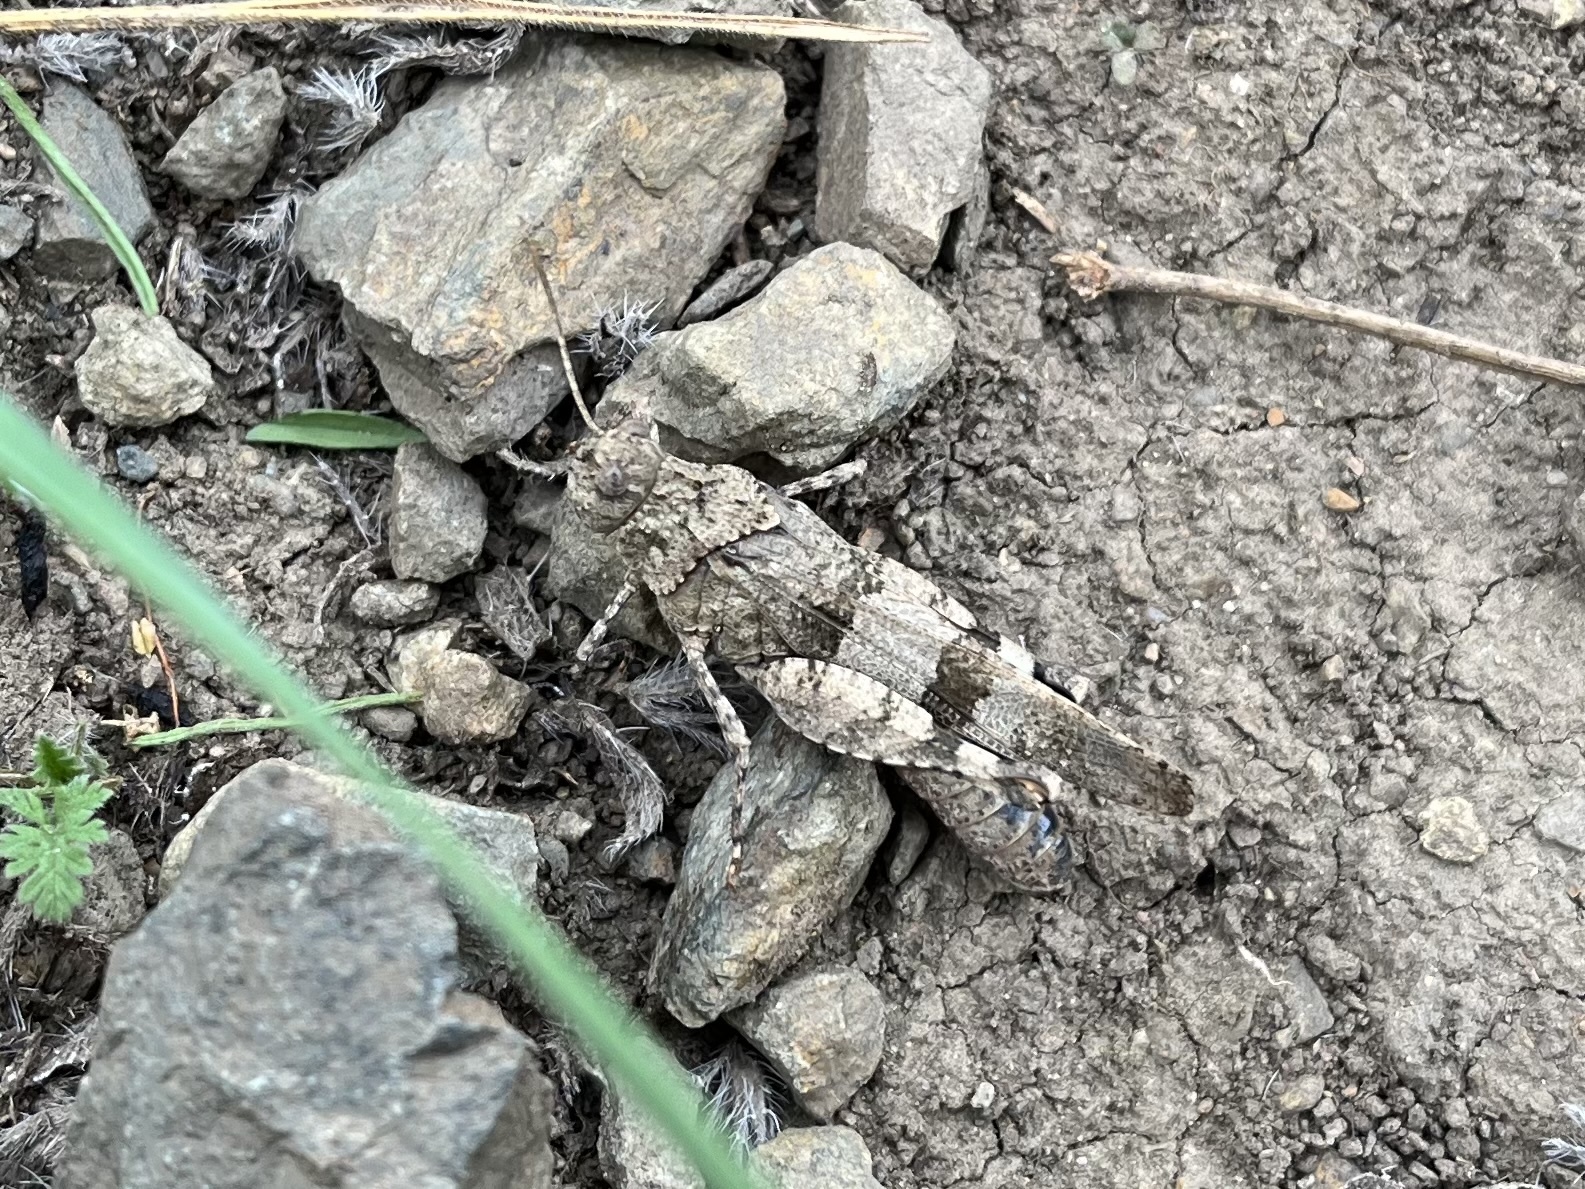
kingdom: Animalia
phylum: Arthropoda
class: Insecta
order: Orthoptera
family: Acrididae
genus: Oedipoda
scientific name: Oedipoda caerulescens
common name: Blue-winged grasshopper
